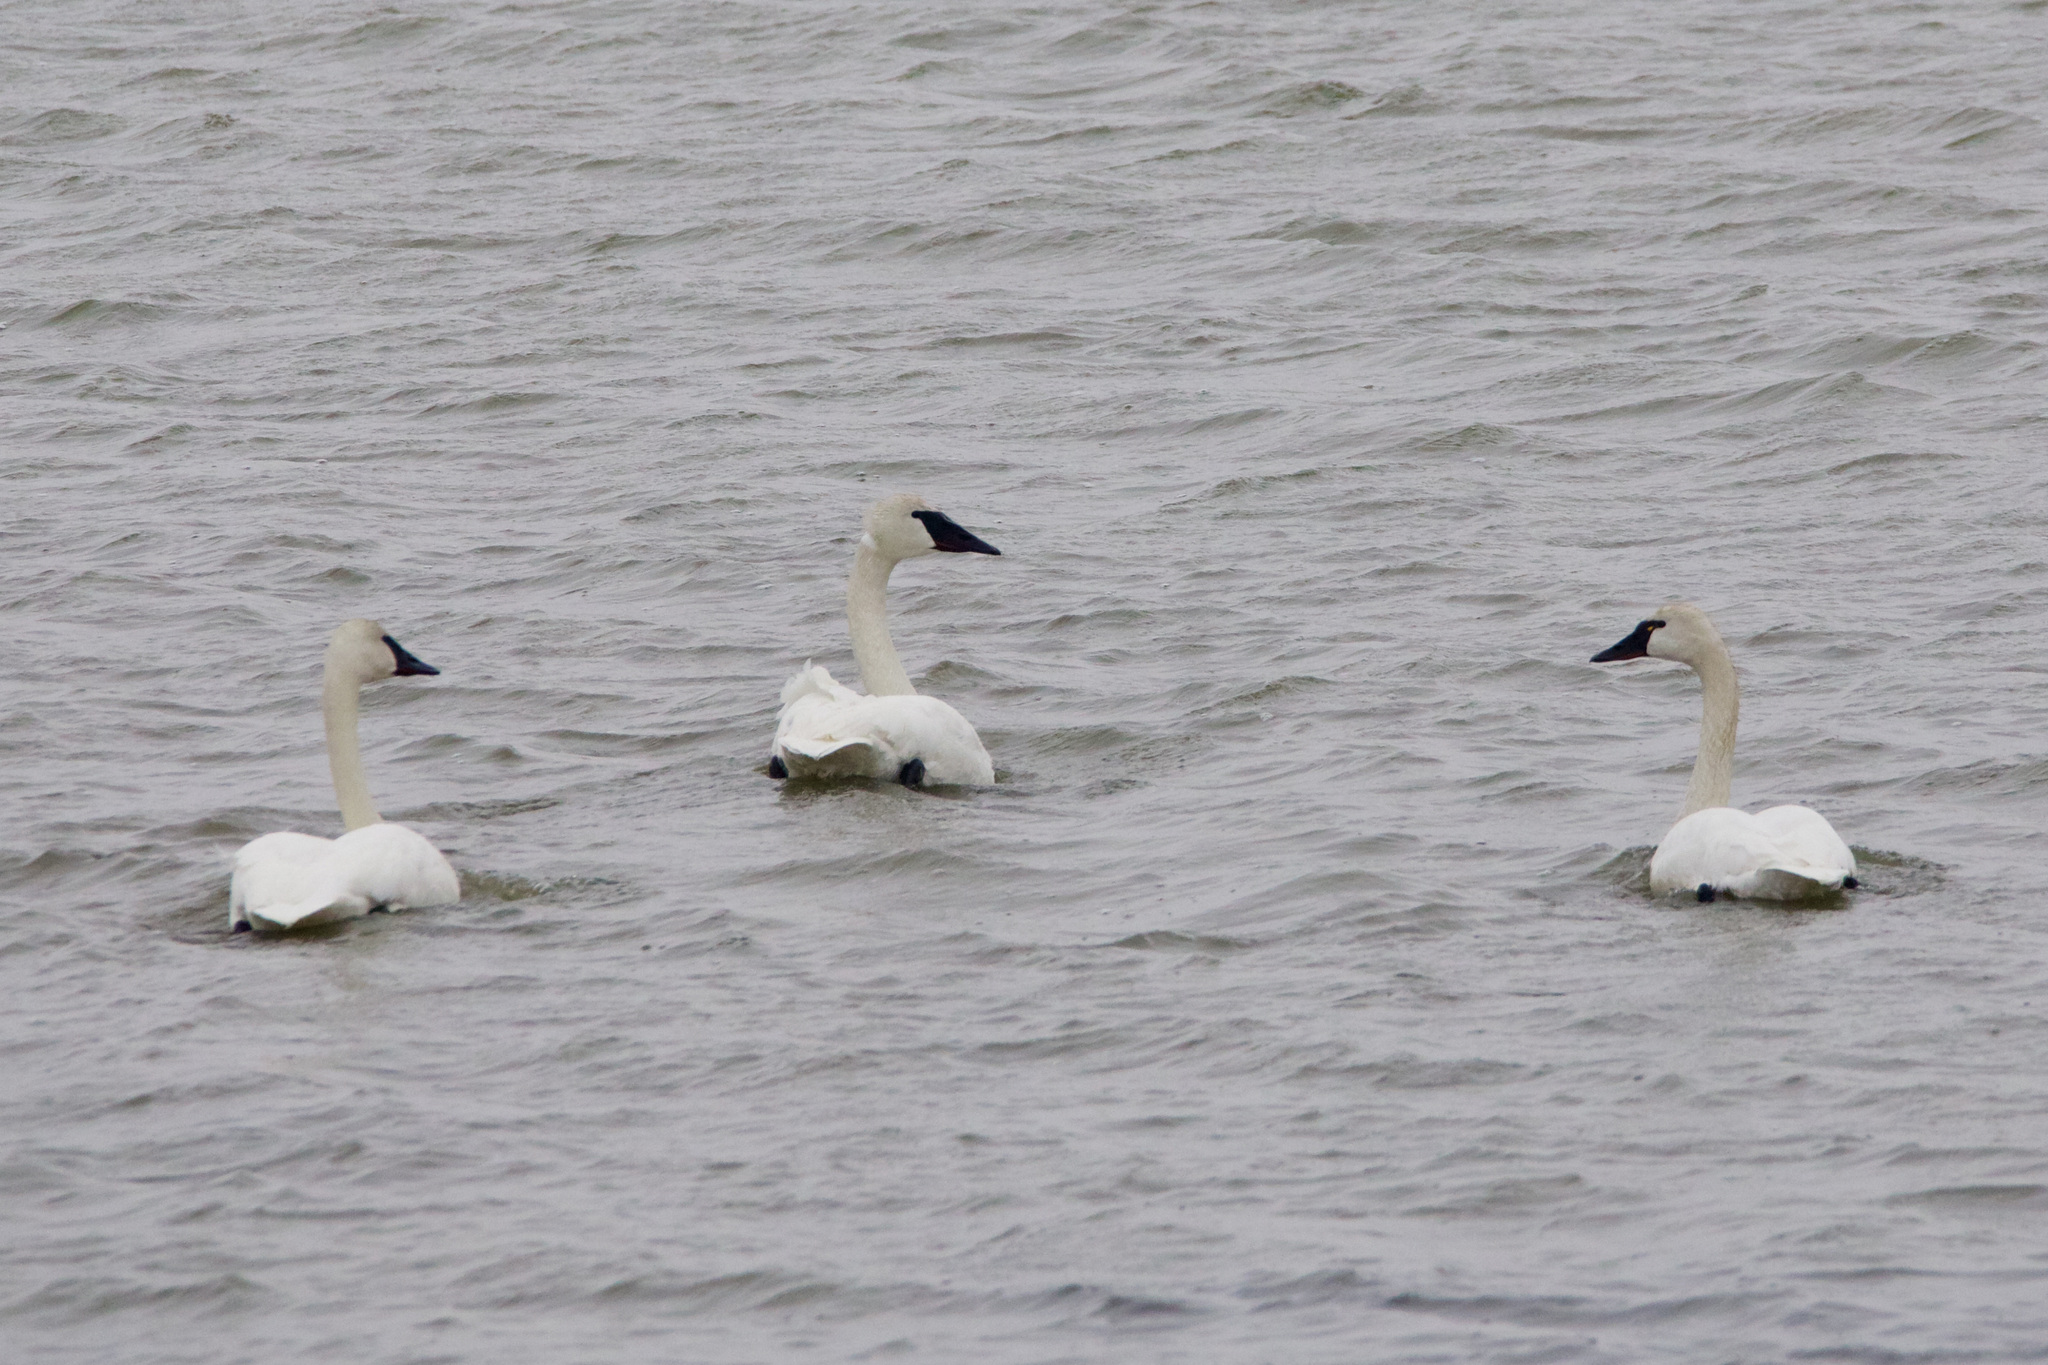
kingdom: Animalia
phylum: Chordata
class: Aves
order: Anseriformes
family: Anatidae
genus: Cygnus
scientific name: Cygnus buccinator
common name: Trumpeter swan
